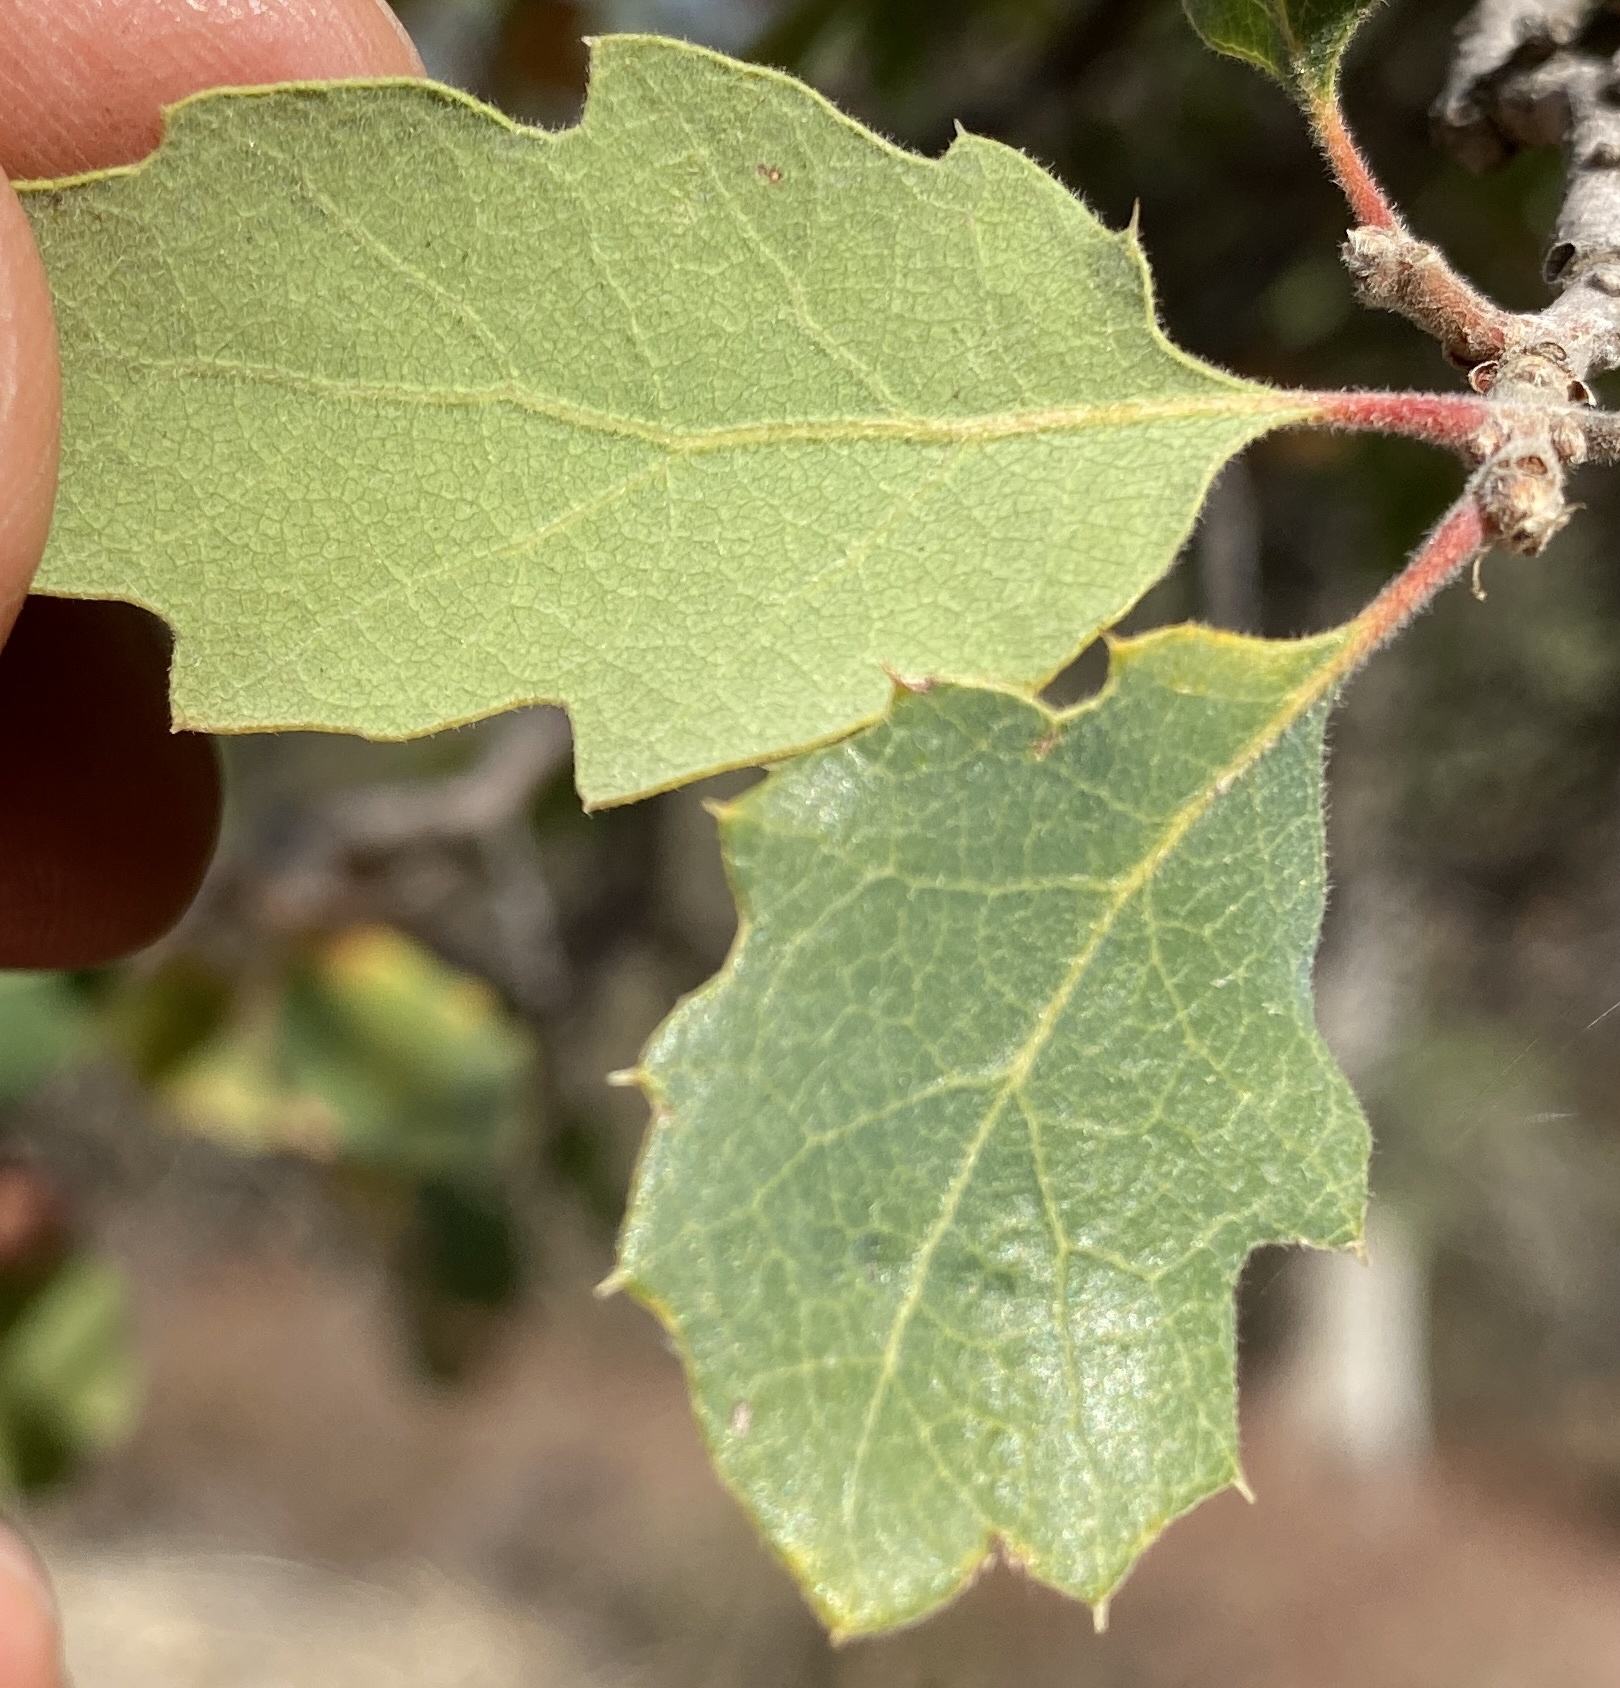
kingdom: Plantae
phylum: Tracheophyta
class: Magnoliopsida
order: Fagales
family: Fagaceae
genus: Quercus
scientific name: Quercus berberidifolia
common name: California scrub oak
